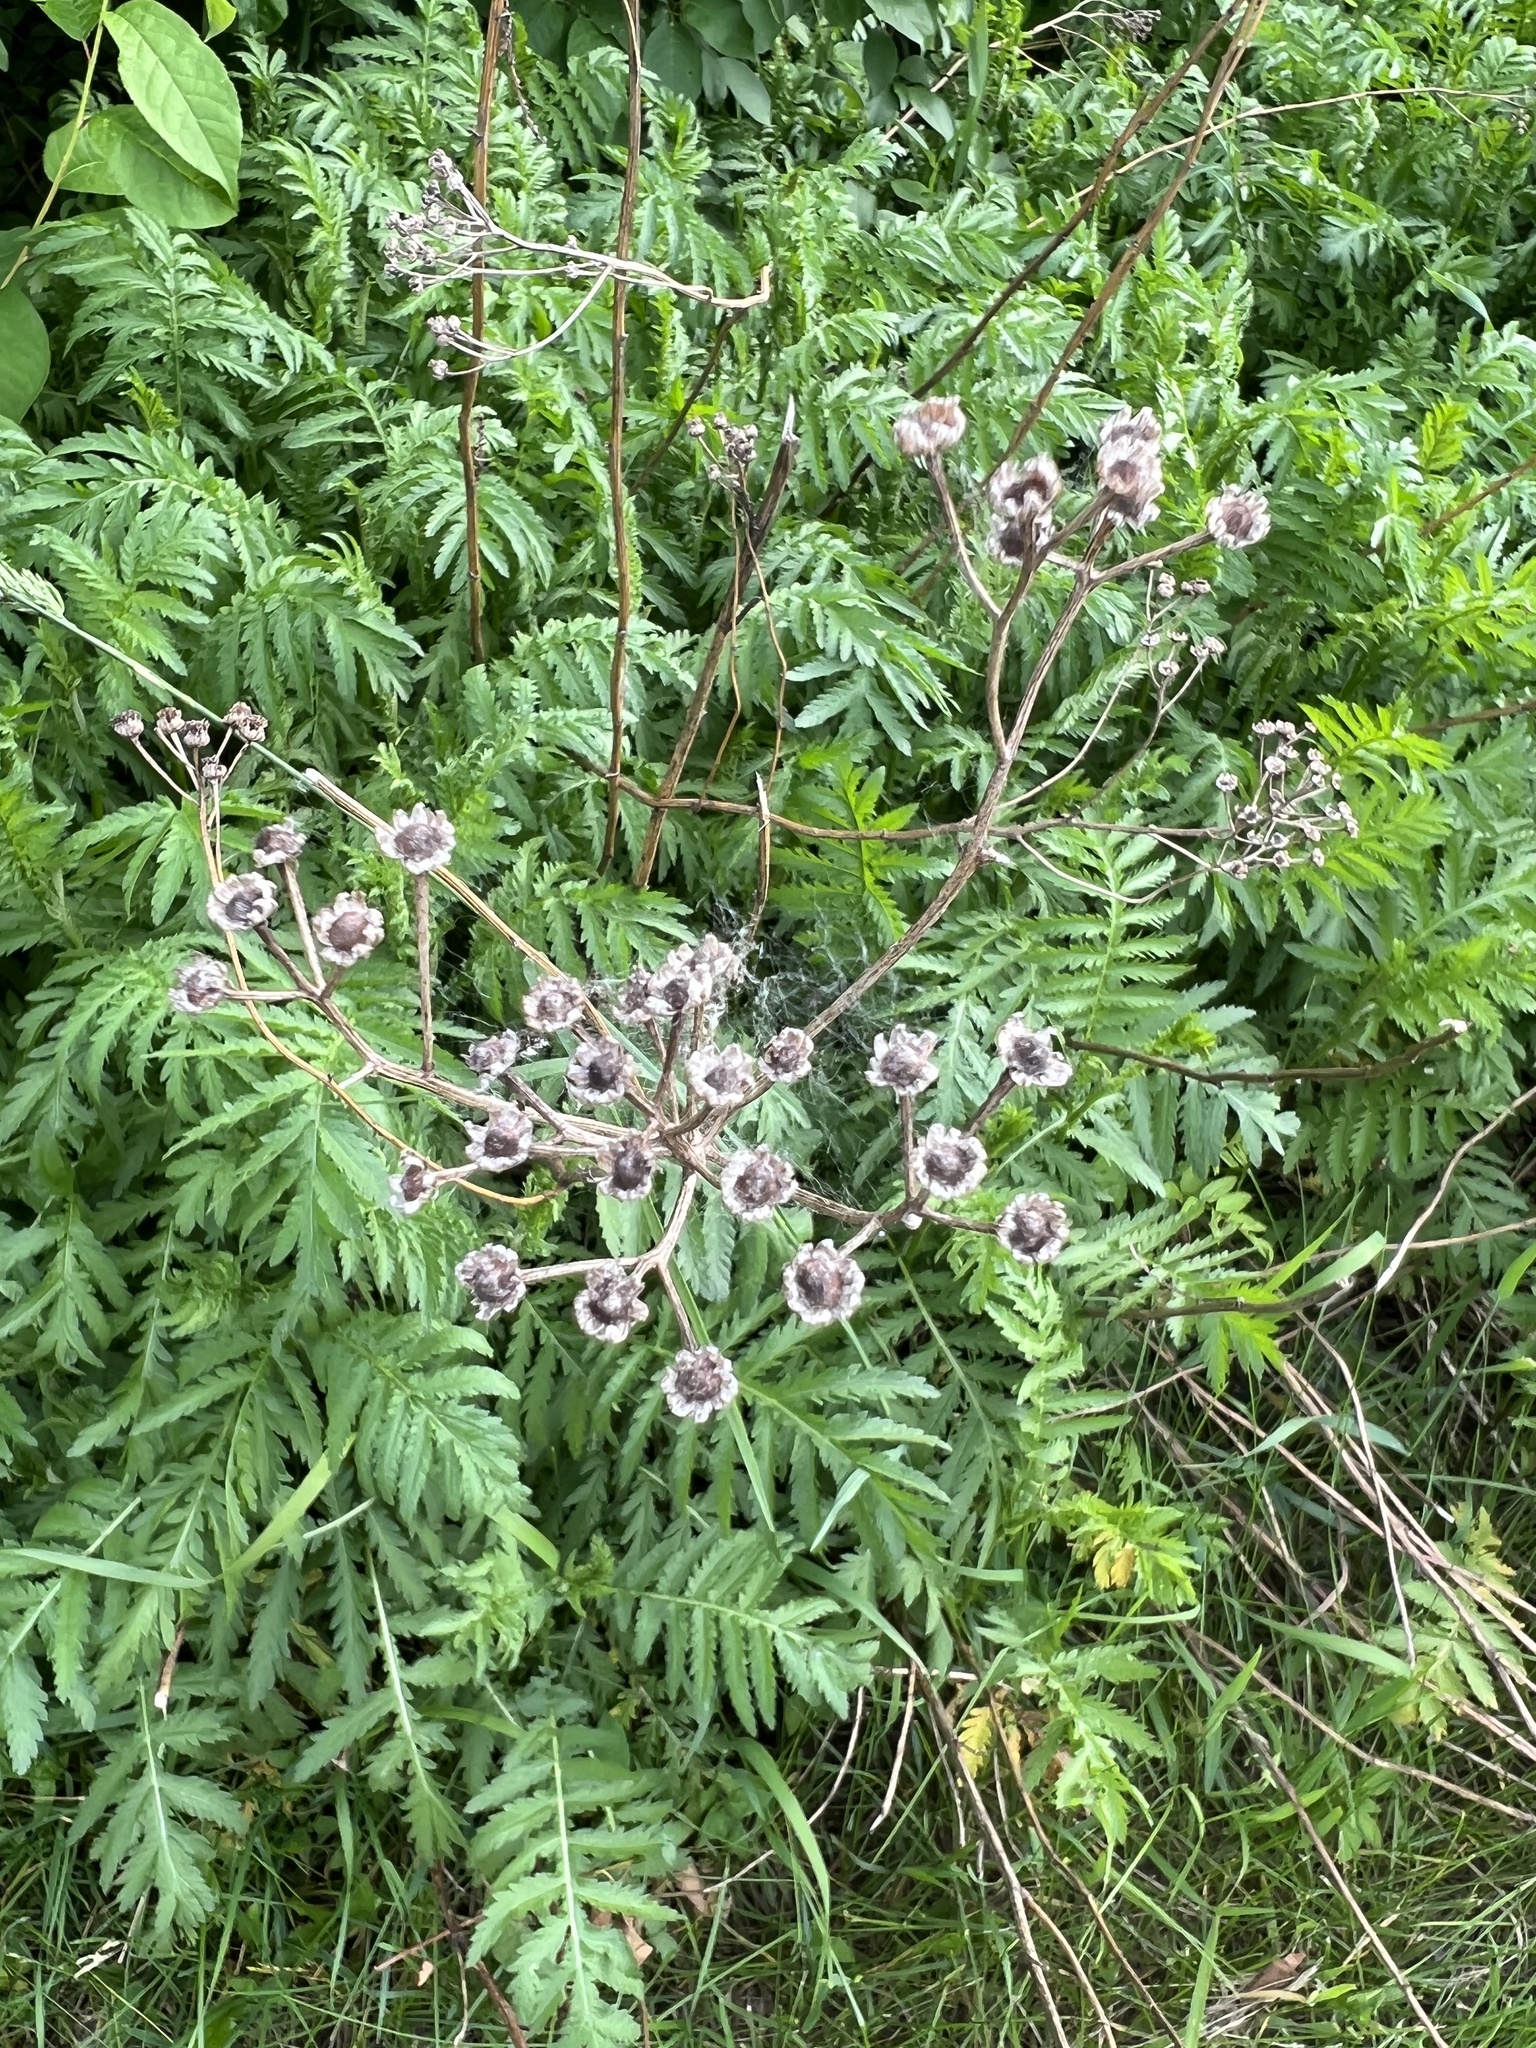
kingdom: Plantae
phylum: Tracheophyta
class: Magnoliopsida
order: Asterales
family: Asteraceae
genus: Tanacetum
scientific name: Tanacetum vulgare
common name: Common tansy
